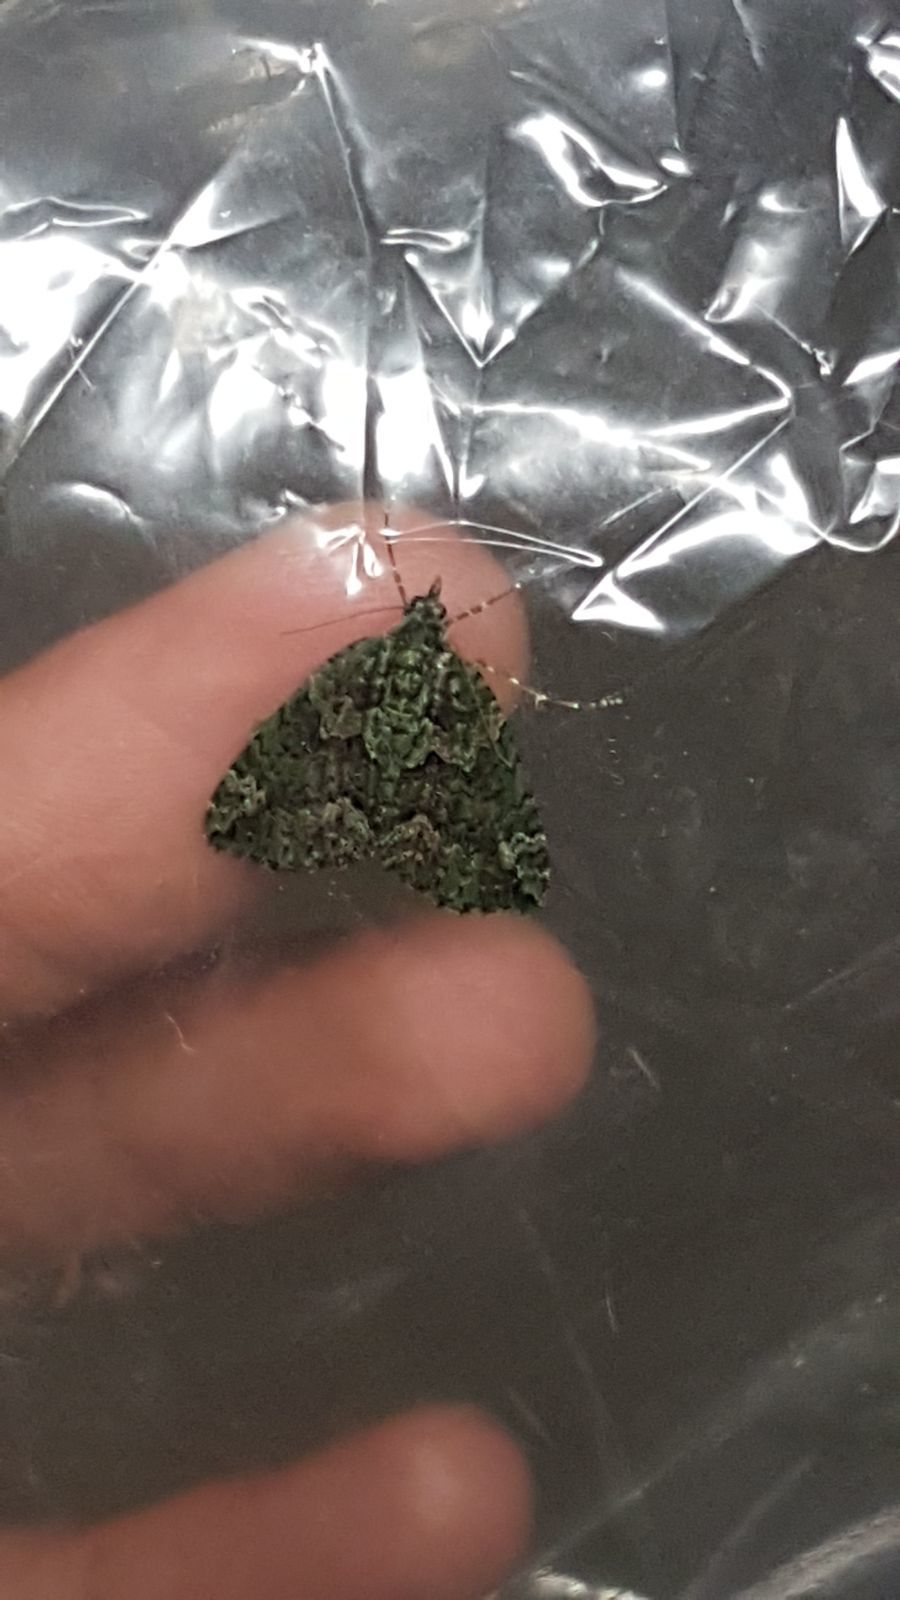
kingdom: Animalia
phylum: Arthropoda
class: Insecta
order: Lepidoptera
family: Geometridae
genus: Chloroclysta
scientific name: Chloroclysta siterata
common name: Red-green carpet
